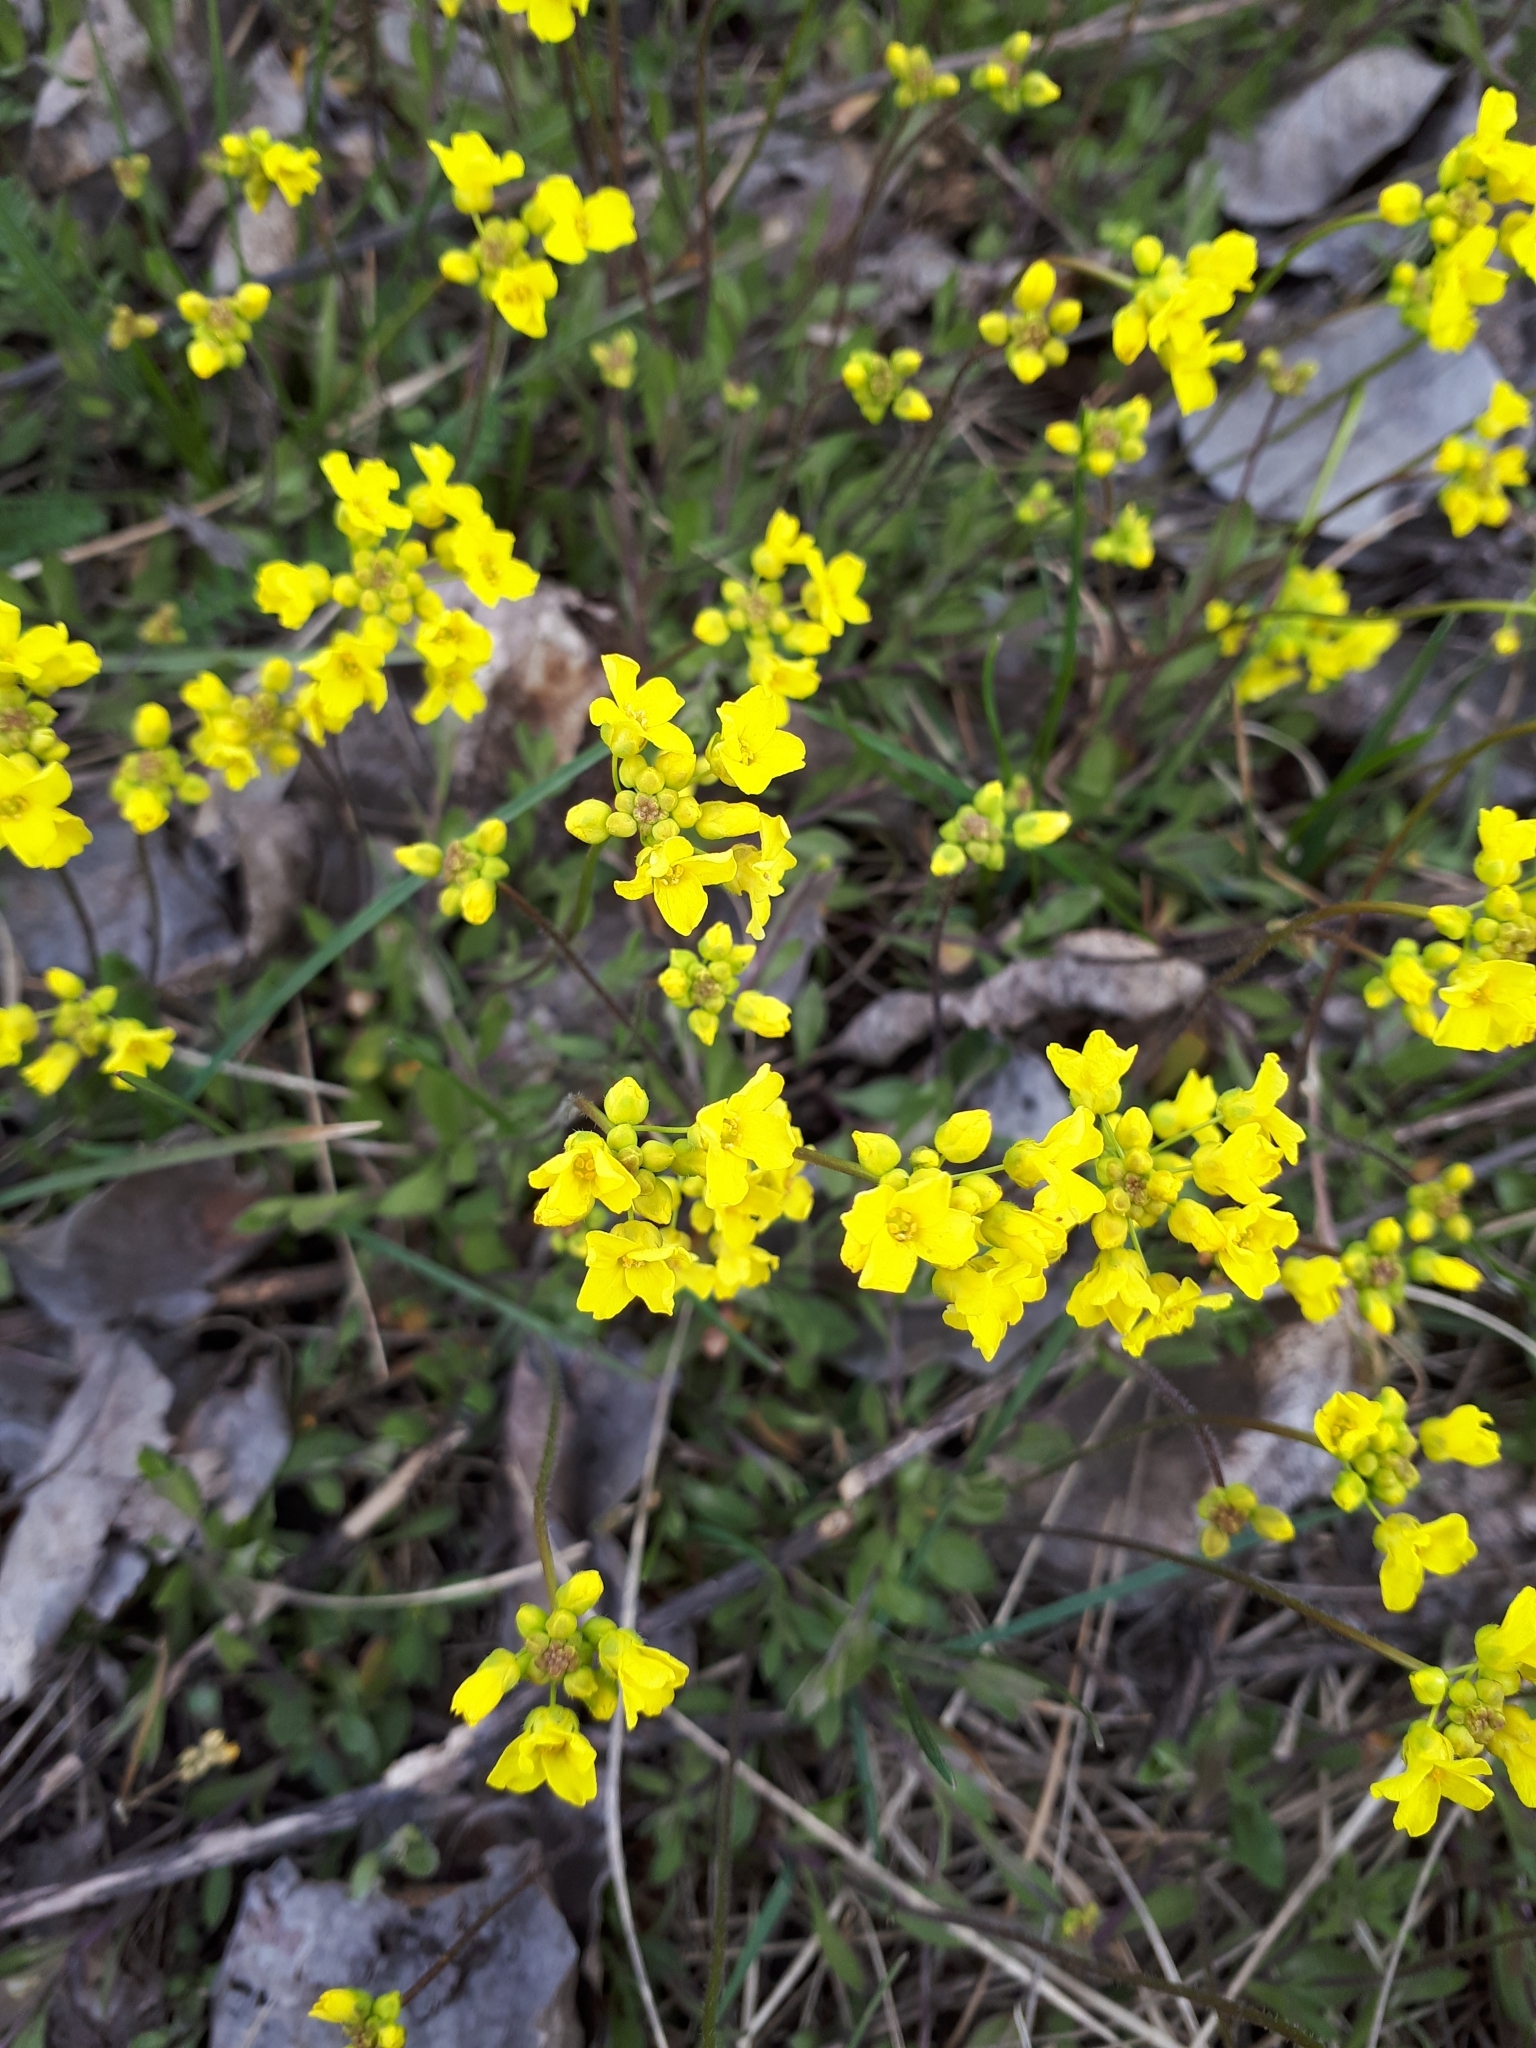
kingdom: Plantae
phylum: Tracheophyta
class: Magnoliopsida
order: Brassicales
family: Brassicaceae
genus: Draba
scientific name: Draba sibirica
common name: Siberian draba
